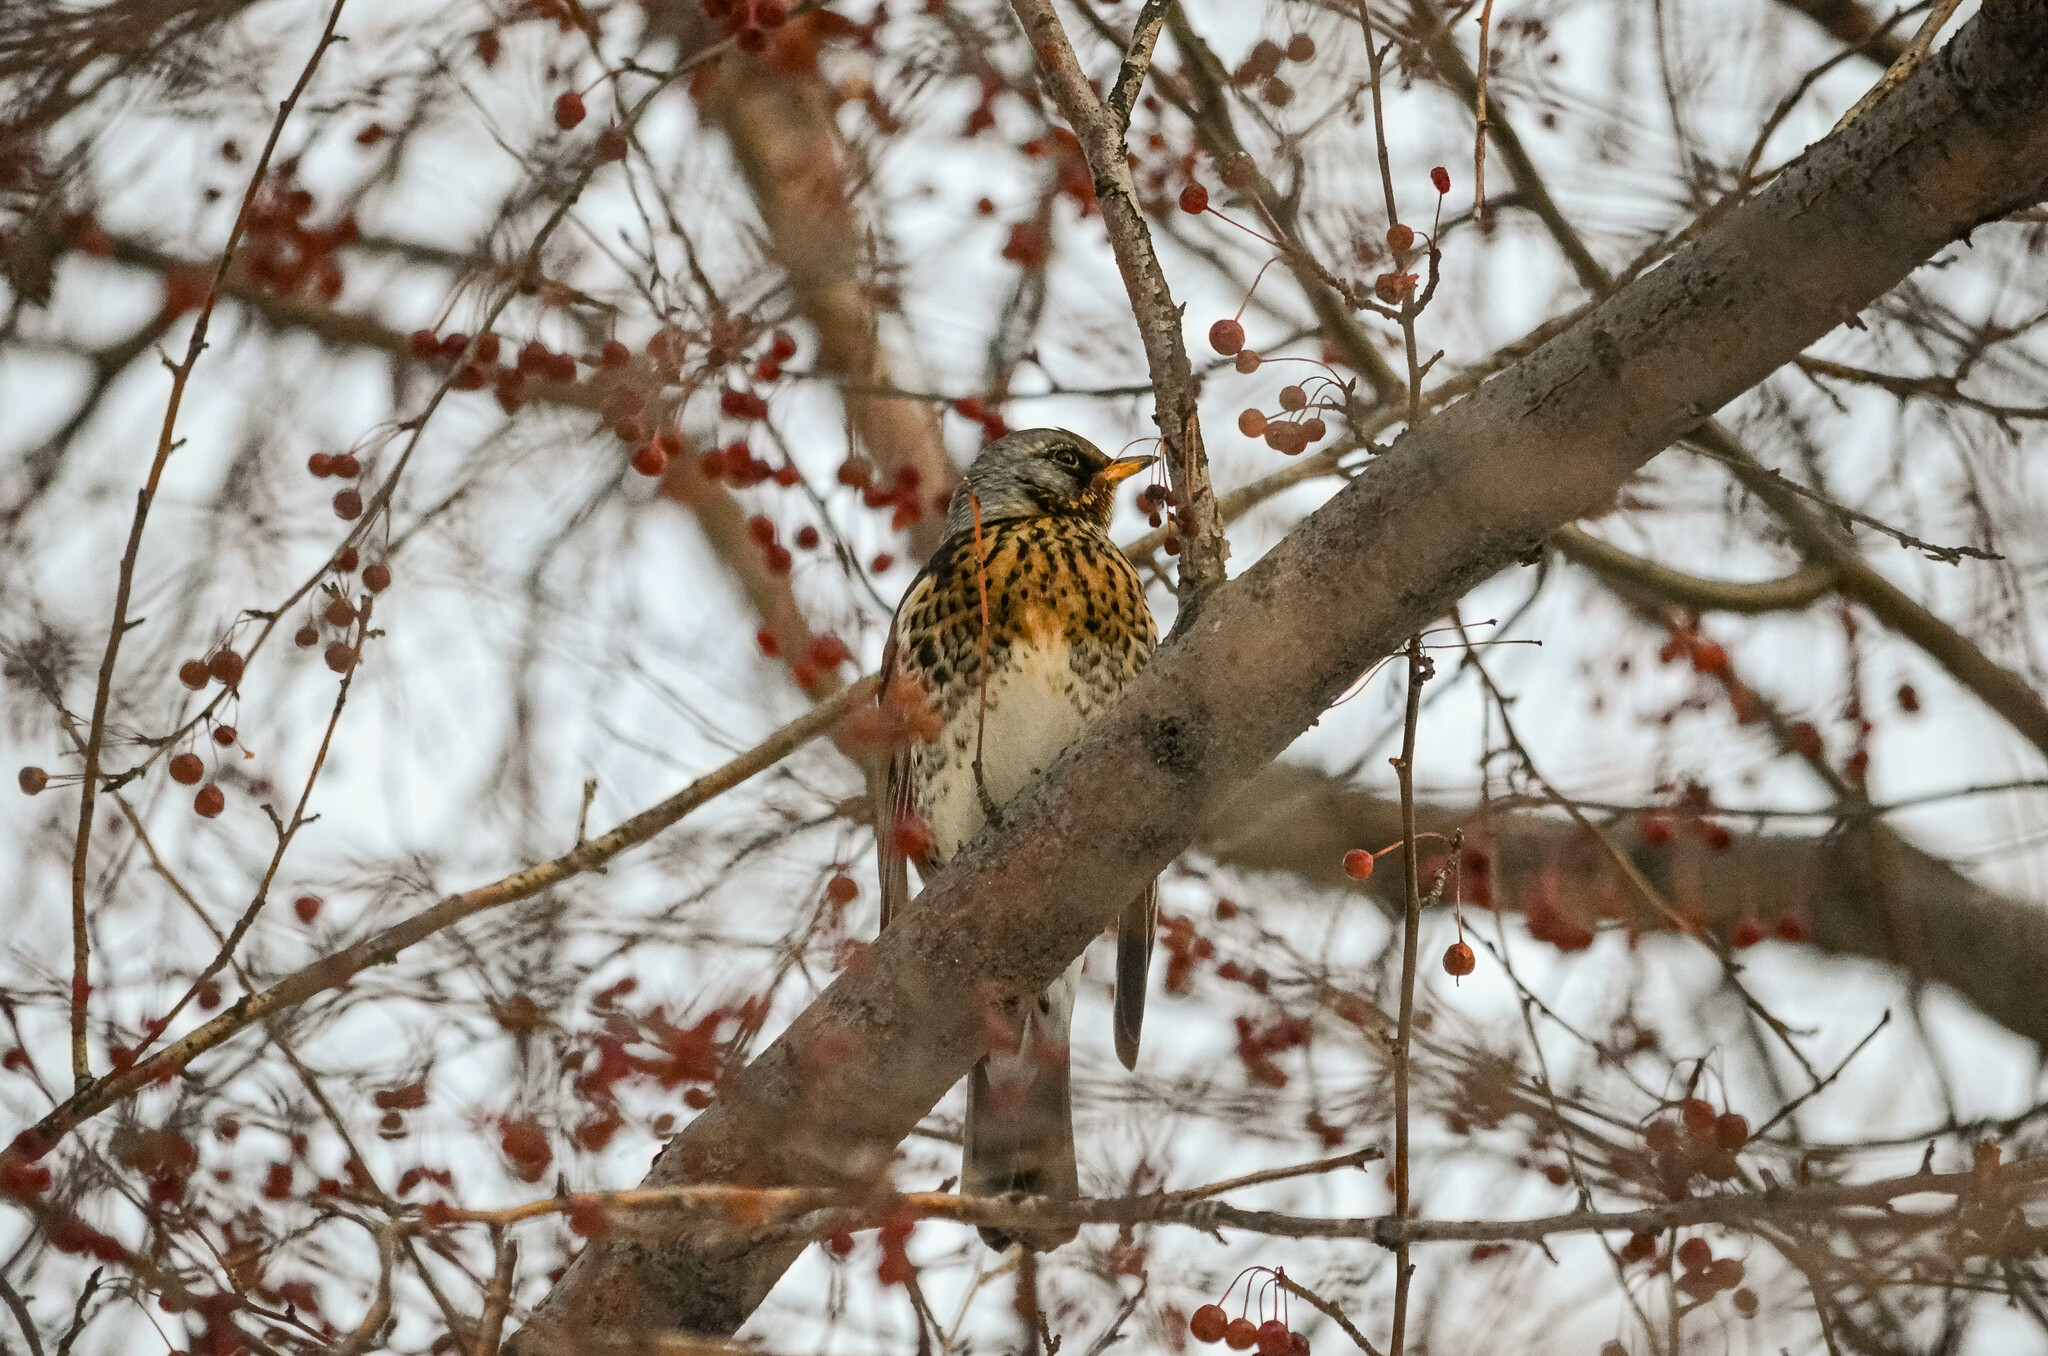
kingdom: Animalia
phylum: Chordata
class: Aves
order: Passeriformes
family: Turdidae
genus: Turdus
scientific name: Turdus pilaris
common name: Fieldfare
